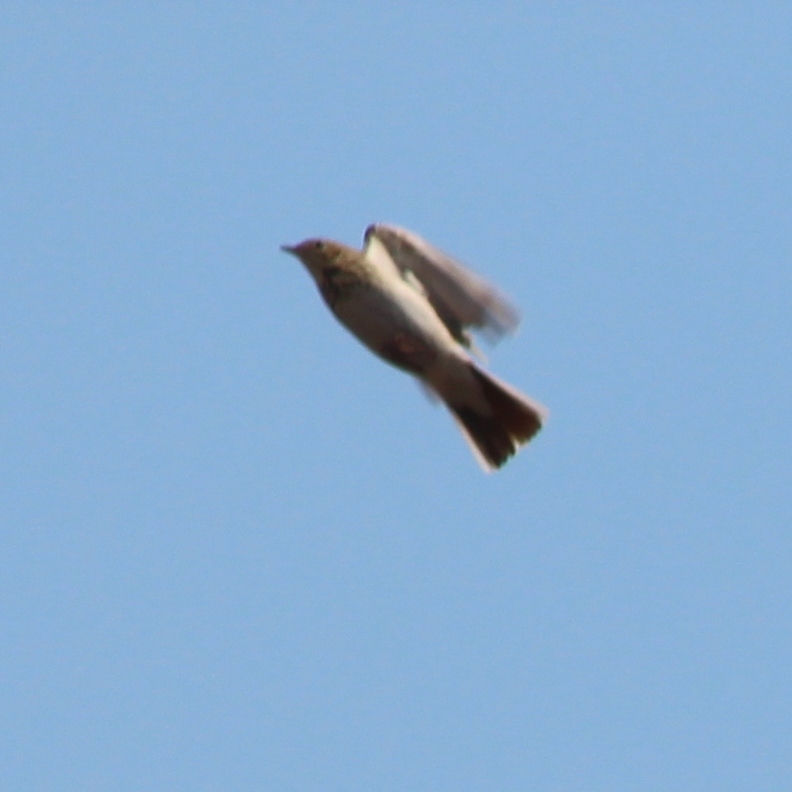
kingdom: Animalia
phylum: Chordata
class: Aves
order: Passeriformes
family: Motacillidae
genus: Anthus
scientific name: Anthus trivialis
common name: Tree pipit
